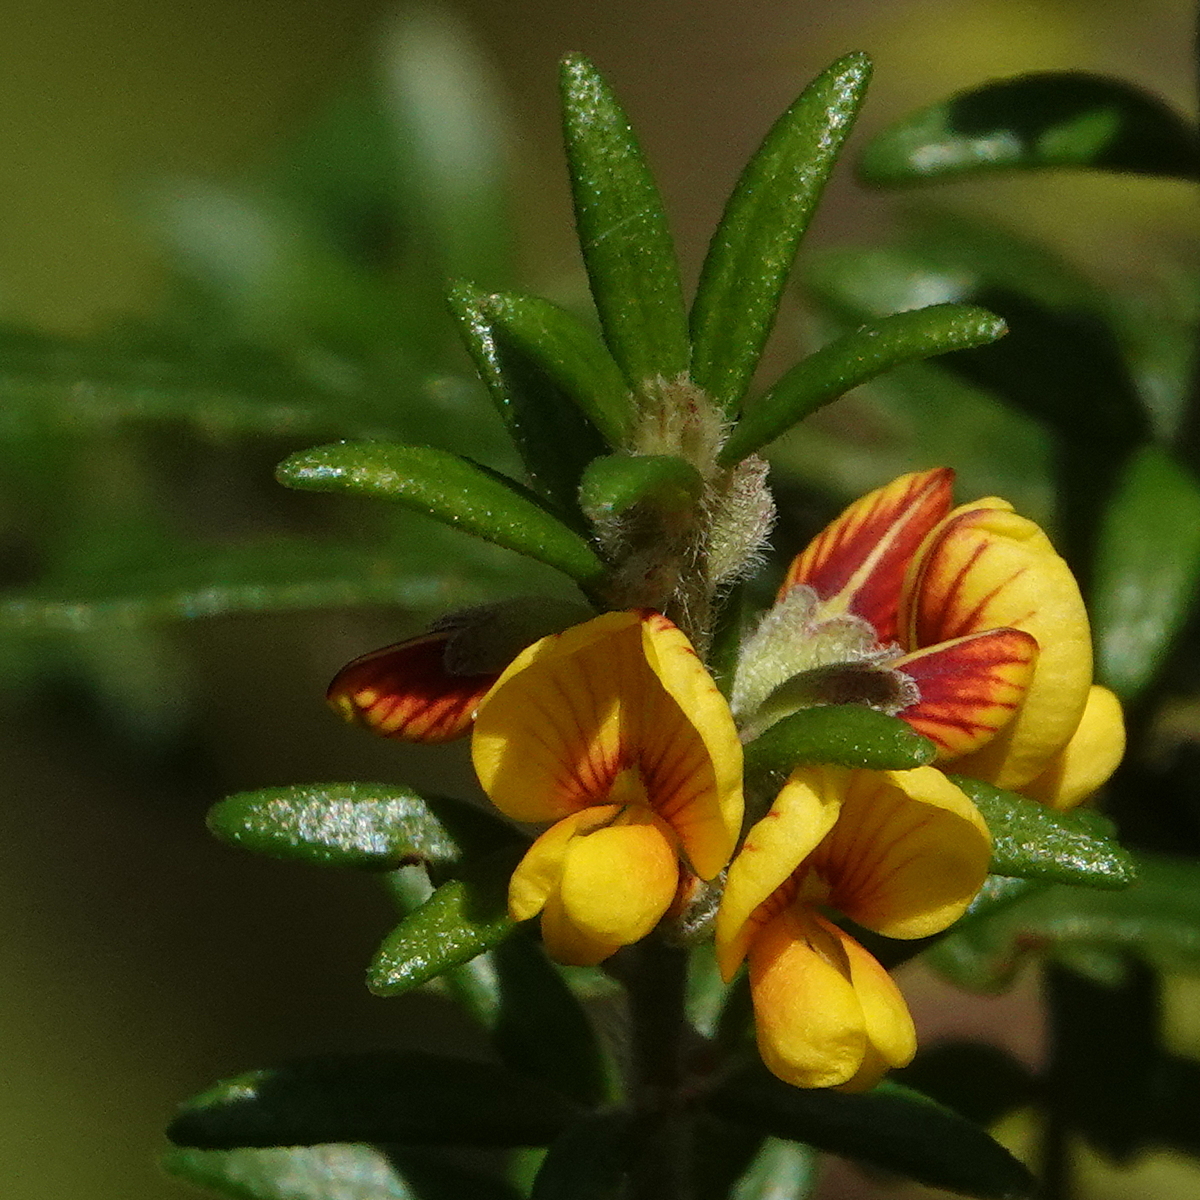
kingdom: Plantae
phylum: Tracheophyta
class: Magnoliopsida
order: Fabales
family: Fabaceae
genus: Aotus
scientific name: Aotus ericoides
